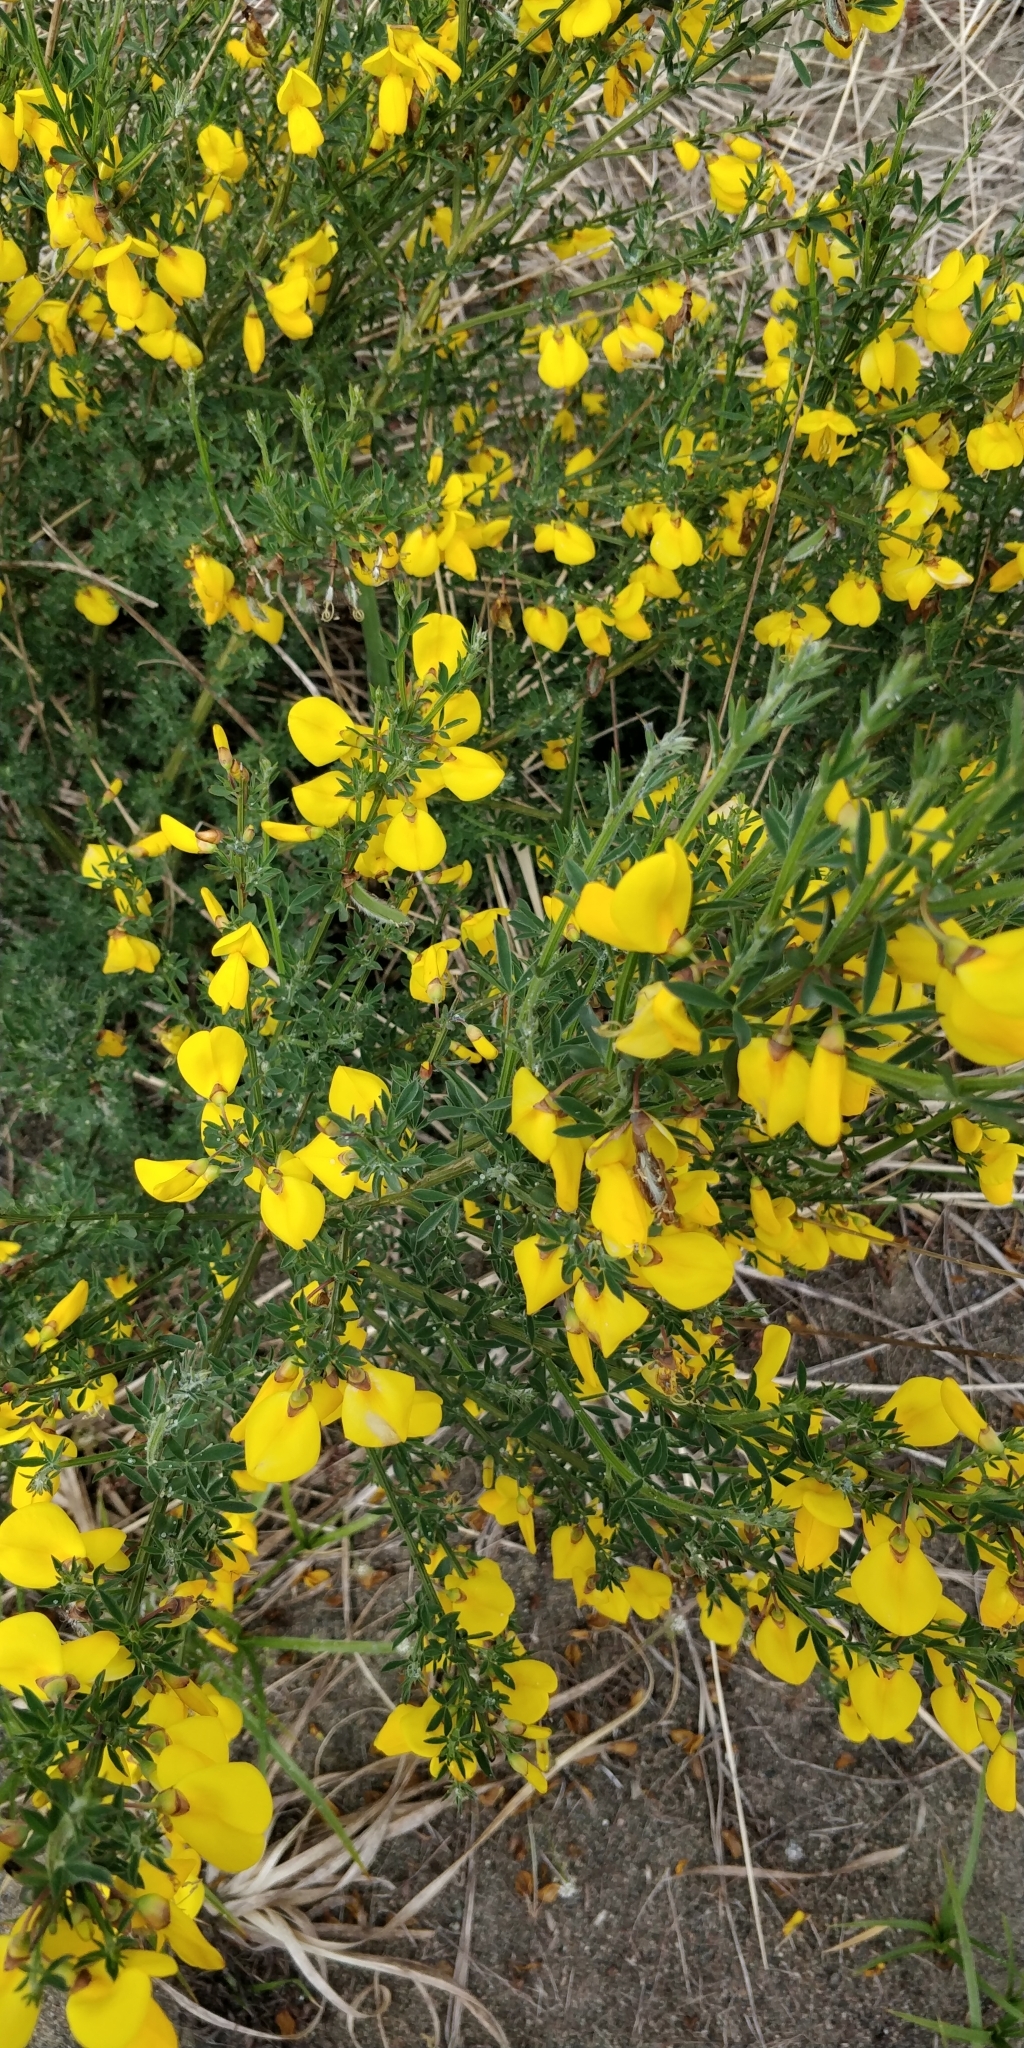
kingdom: Plantae
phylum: Tracheophyta
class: Magnoliopsida
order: Fabales
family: Fabaceae
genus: Cytisus
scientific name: Cytisus scoparius
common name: Scotch broom
